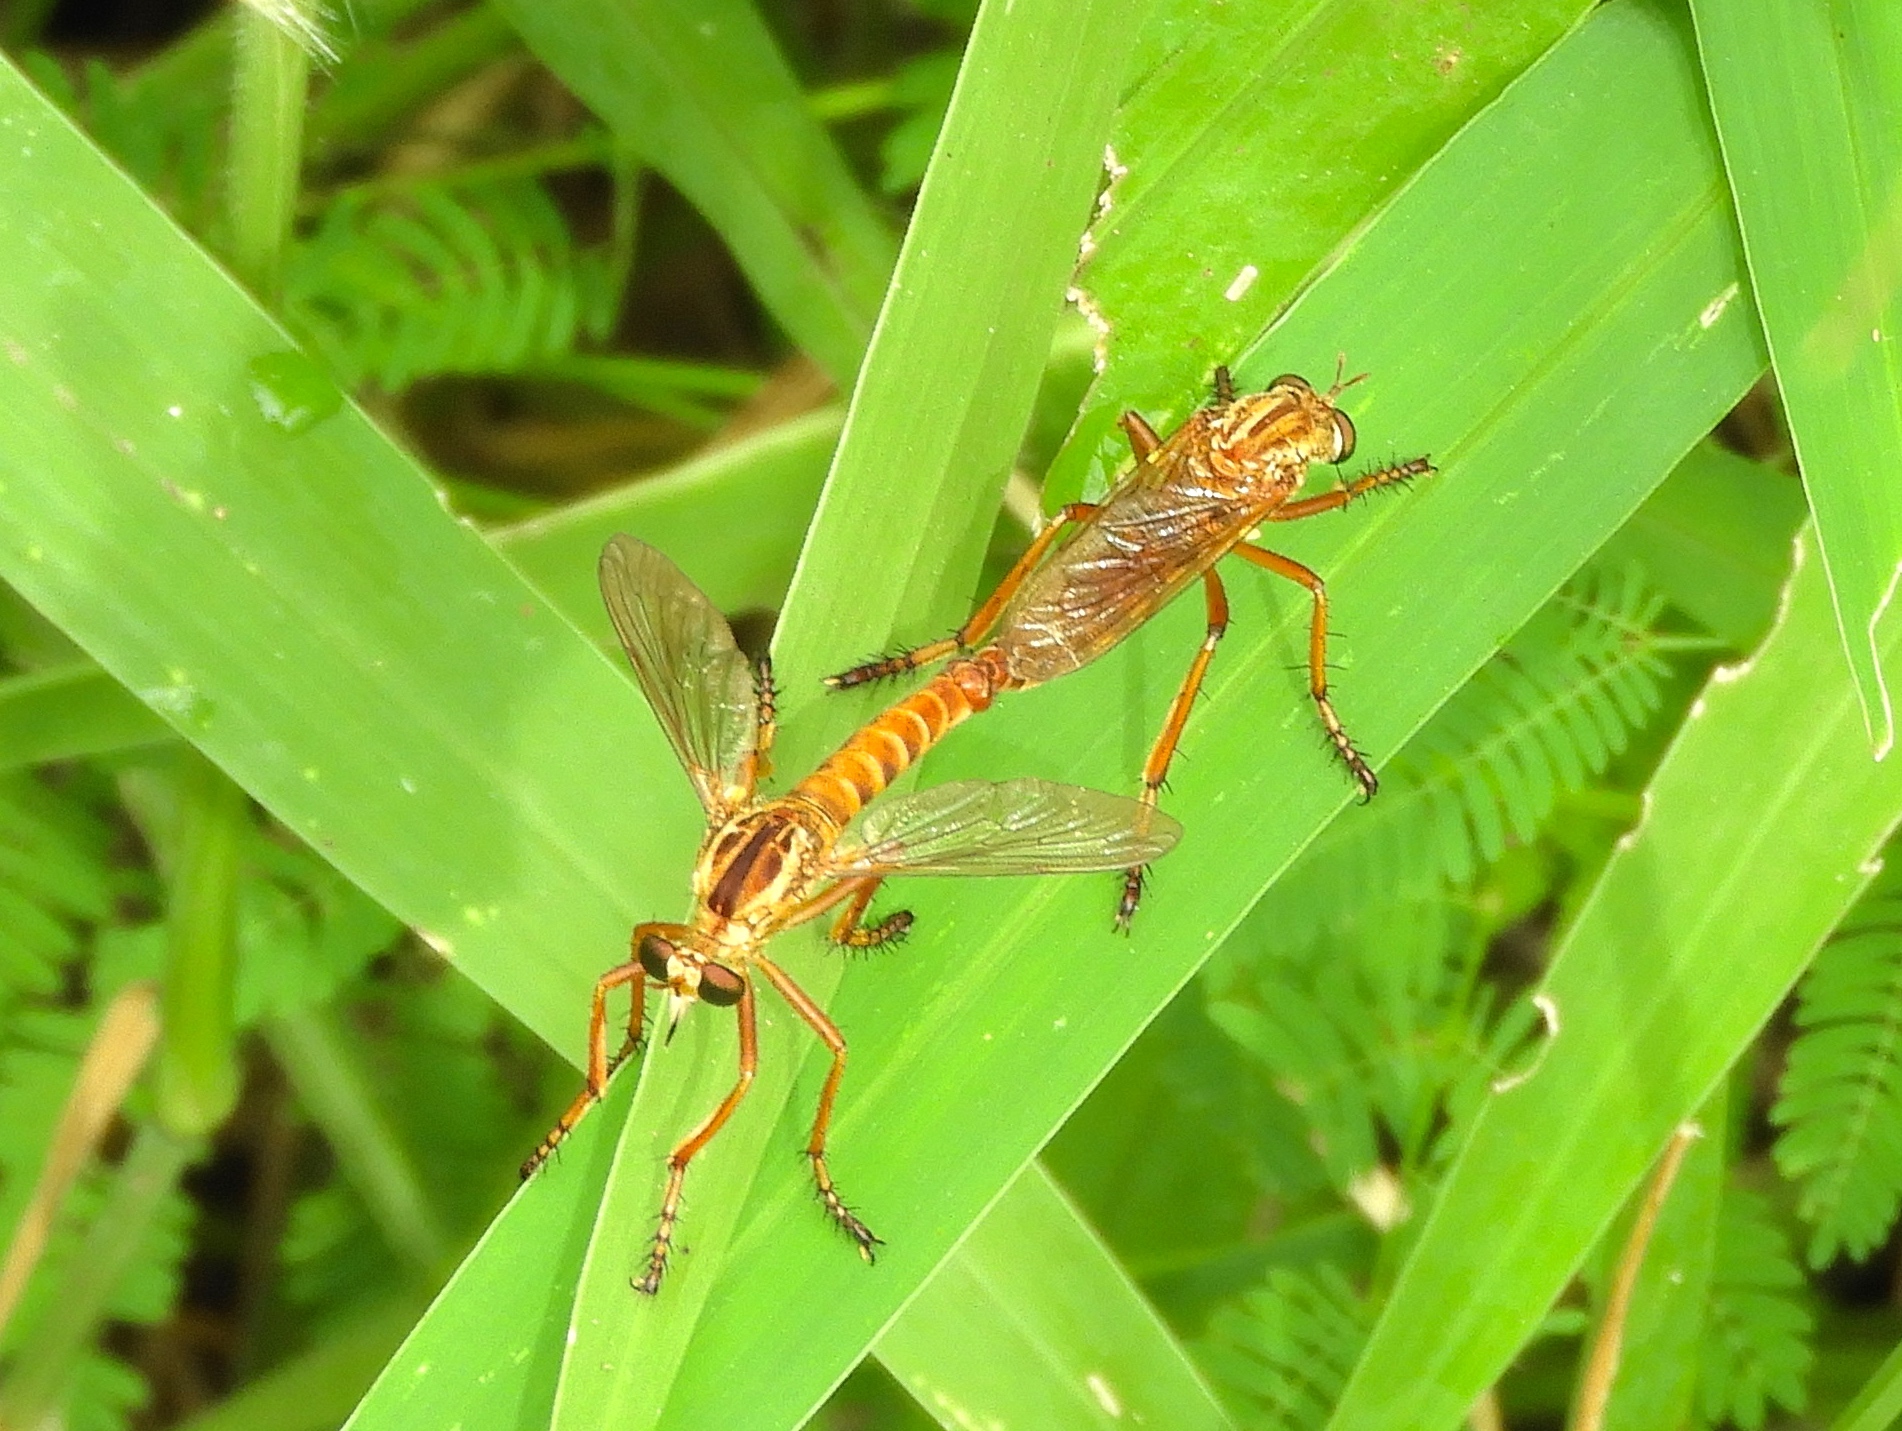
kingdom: Animalia
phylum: Arthropoda
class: Insecta
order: Diptera
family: Asilidae
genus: Diogmites
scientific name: Diogmites
